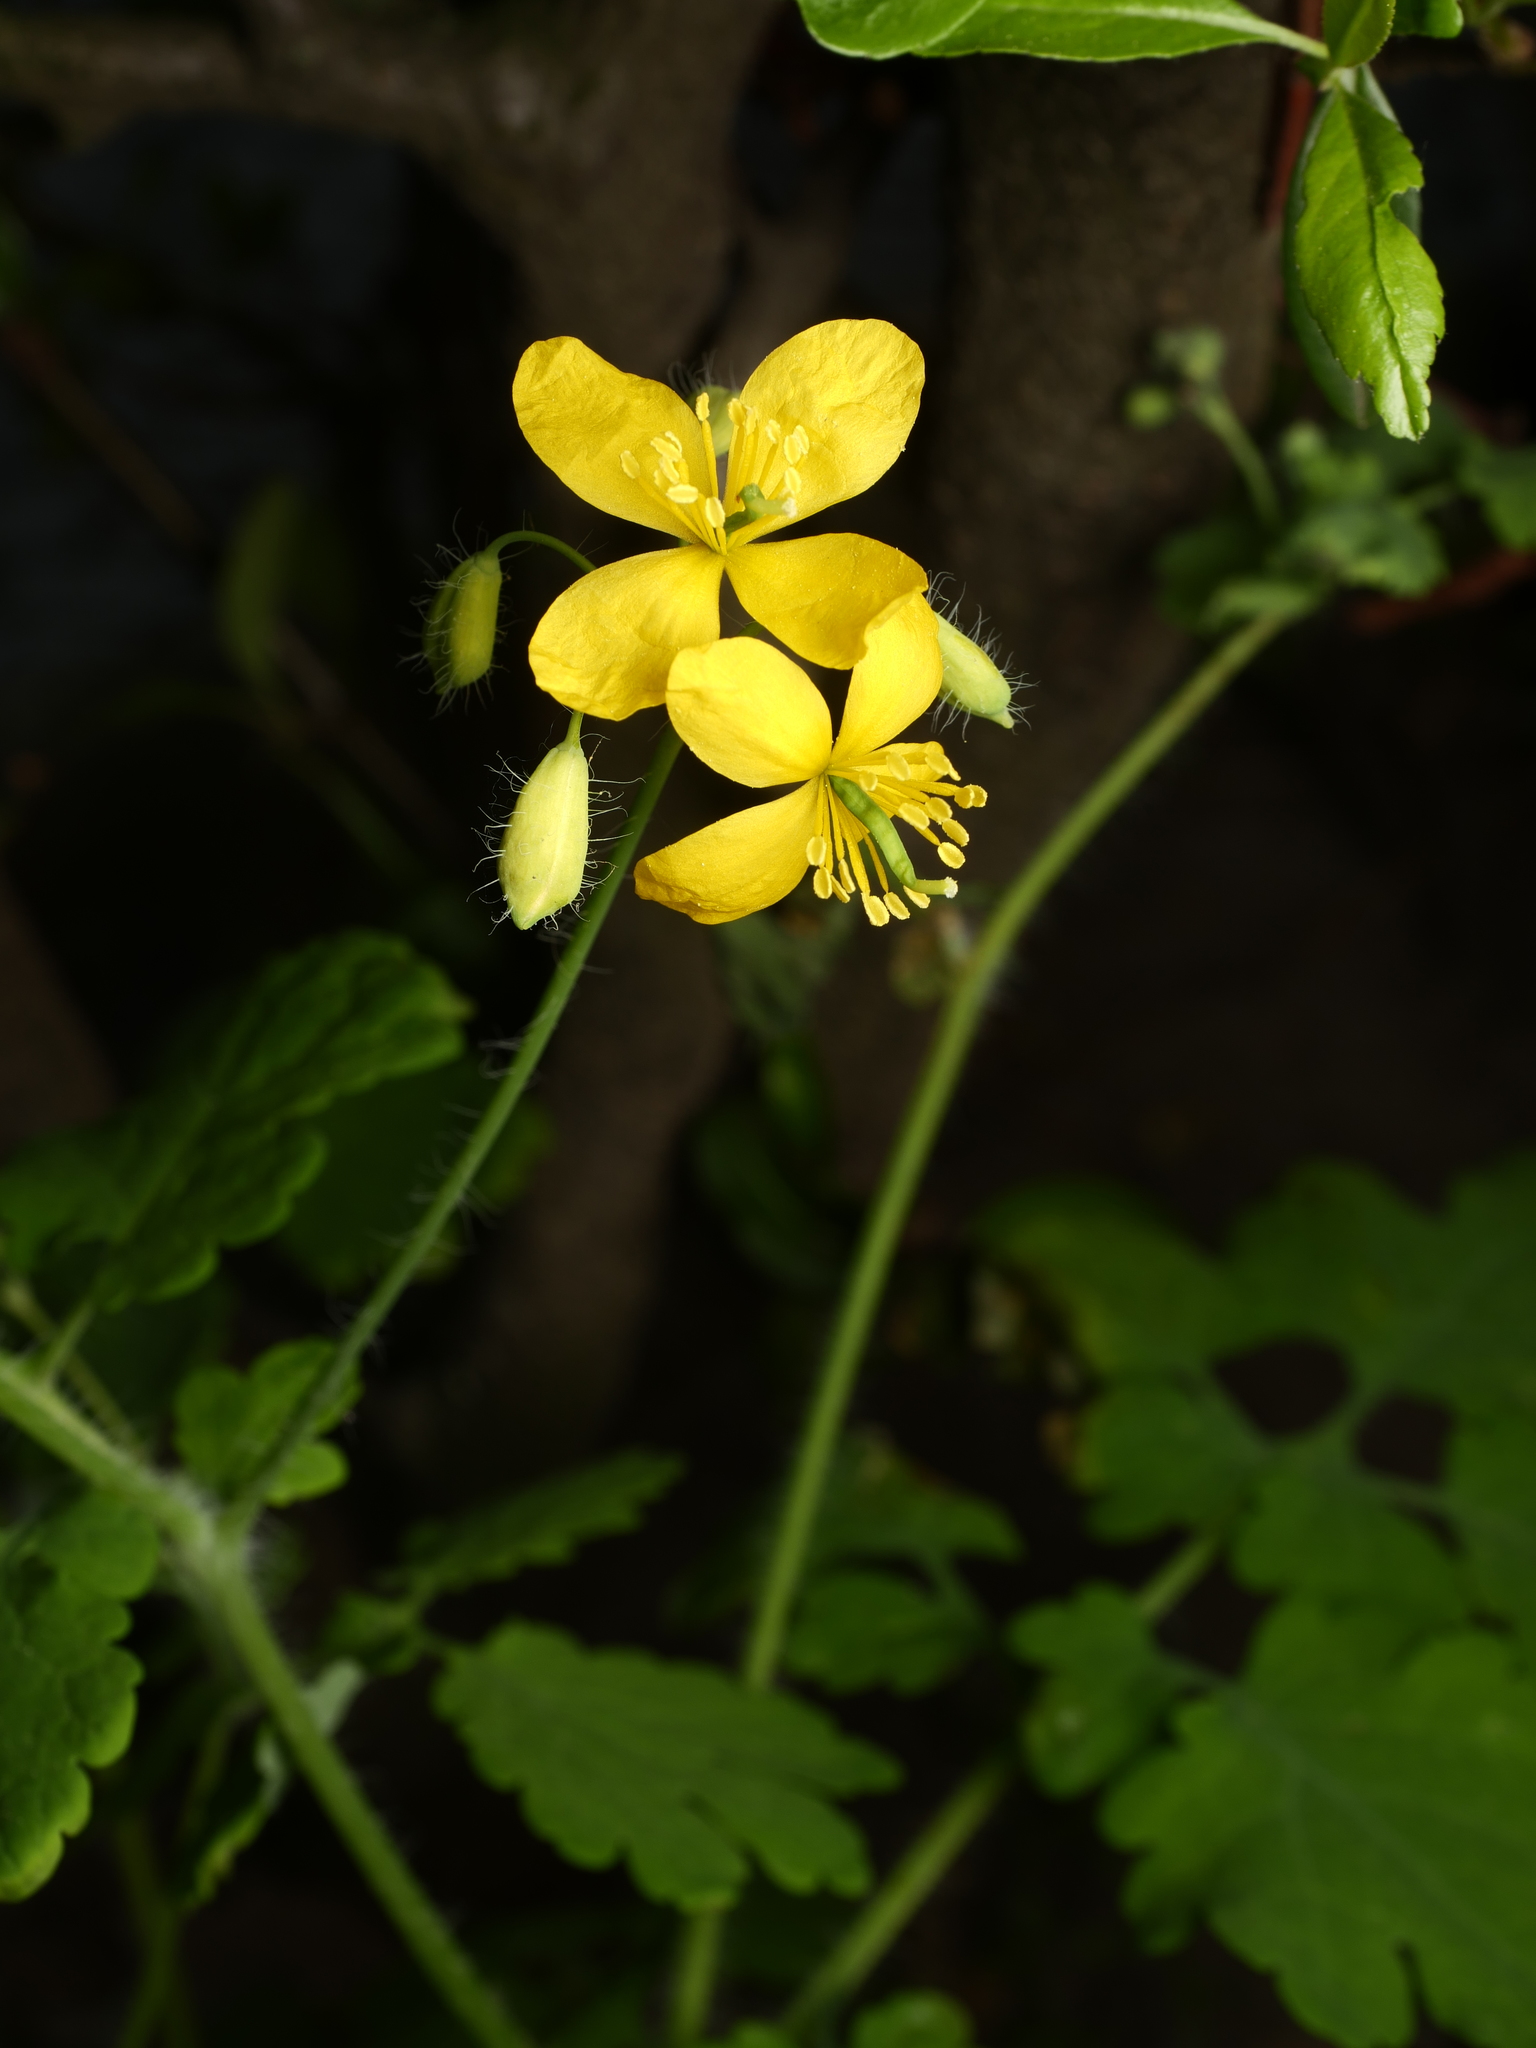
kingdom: Plantae
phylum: Tracheophyta
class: Magnoliopsida
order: Ranunculales
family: Papaveraceae
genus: Chelidonium
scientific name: Chelidonium majus
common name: Greater celandine
